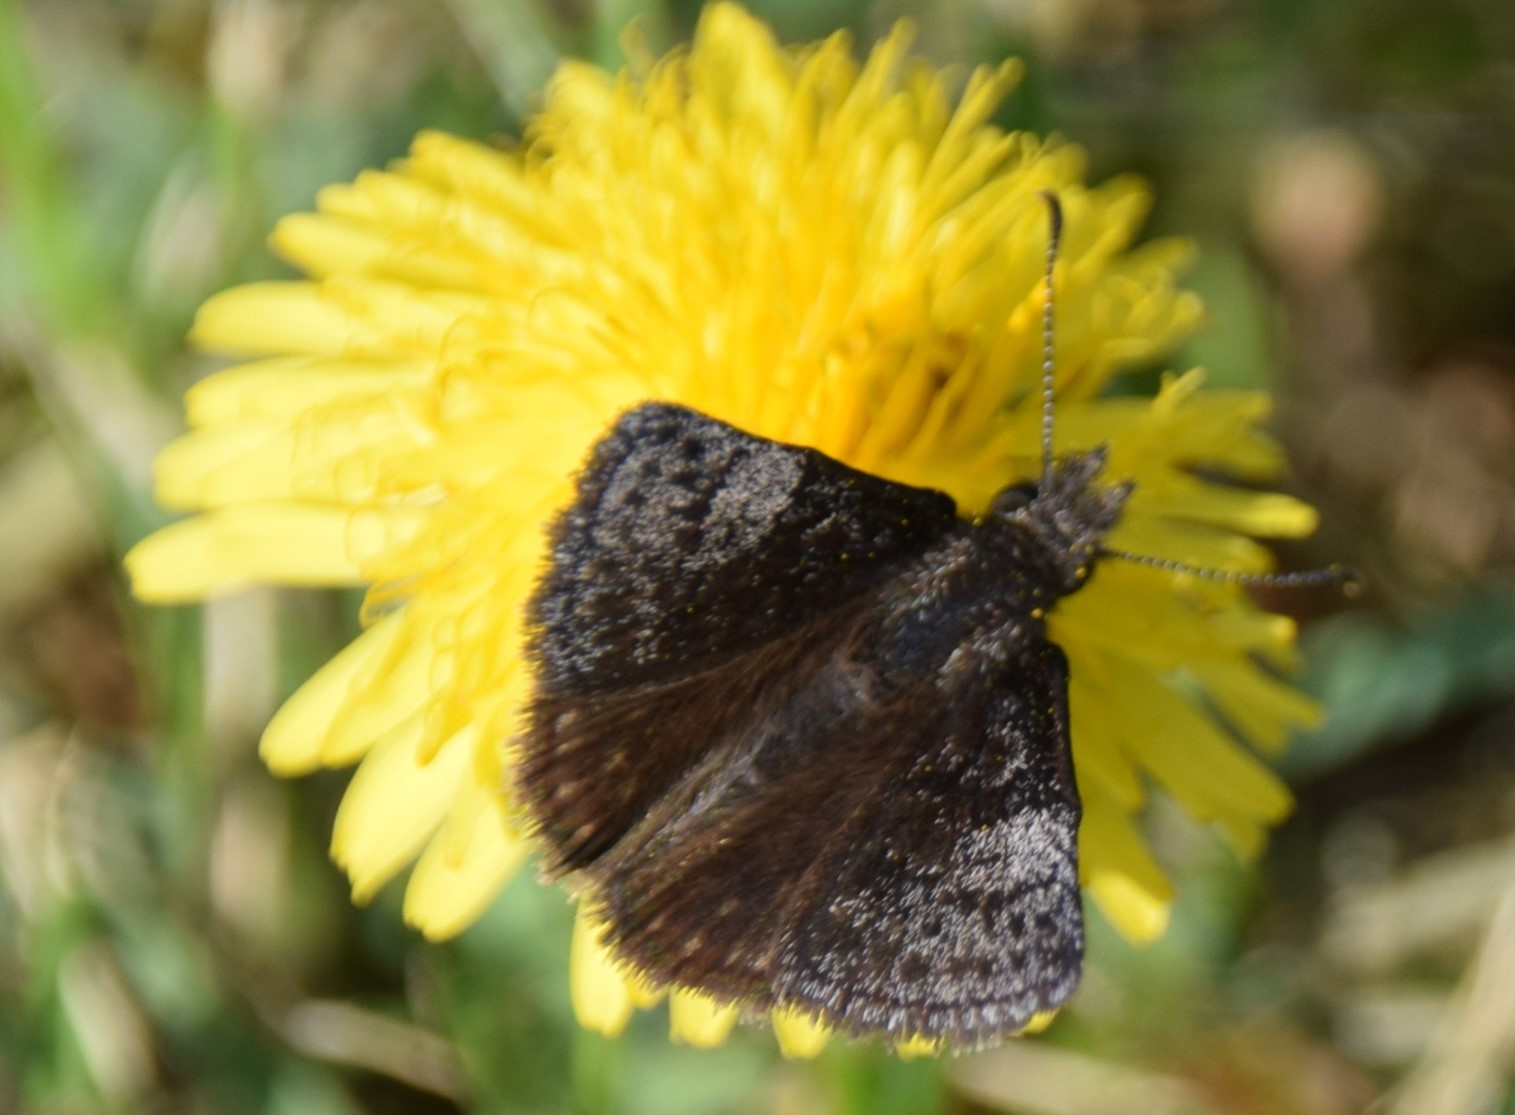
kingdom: Animalia
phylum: Arthropoda
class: Insecta
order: Lepidoptera
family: Hesperiidae
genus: Erynnis
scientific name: Erynnis icelus
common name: Dreamy duskywing
